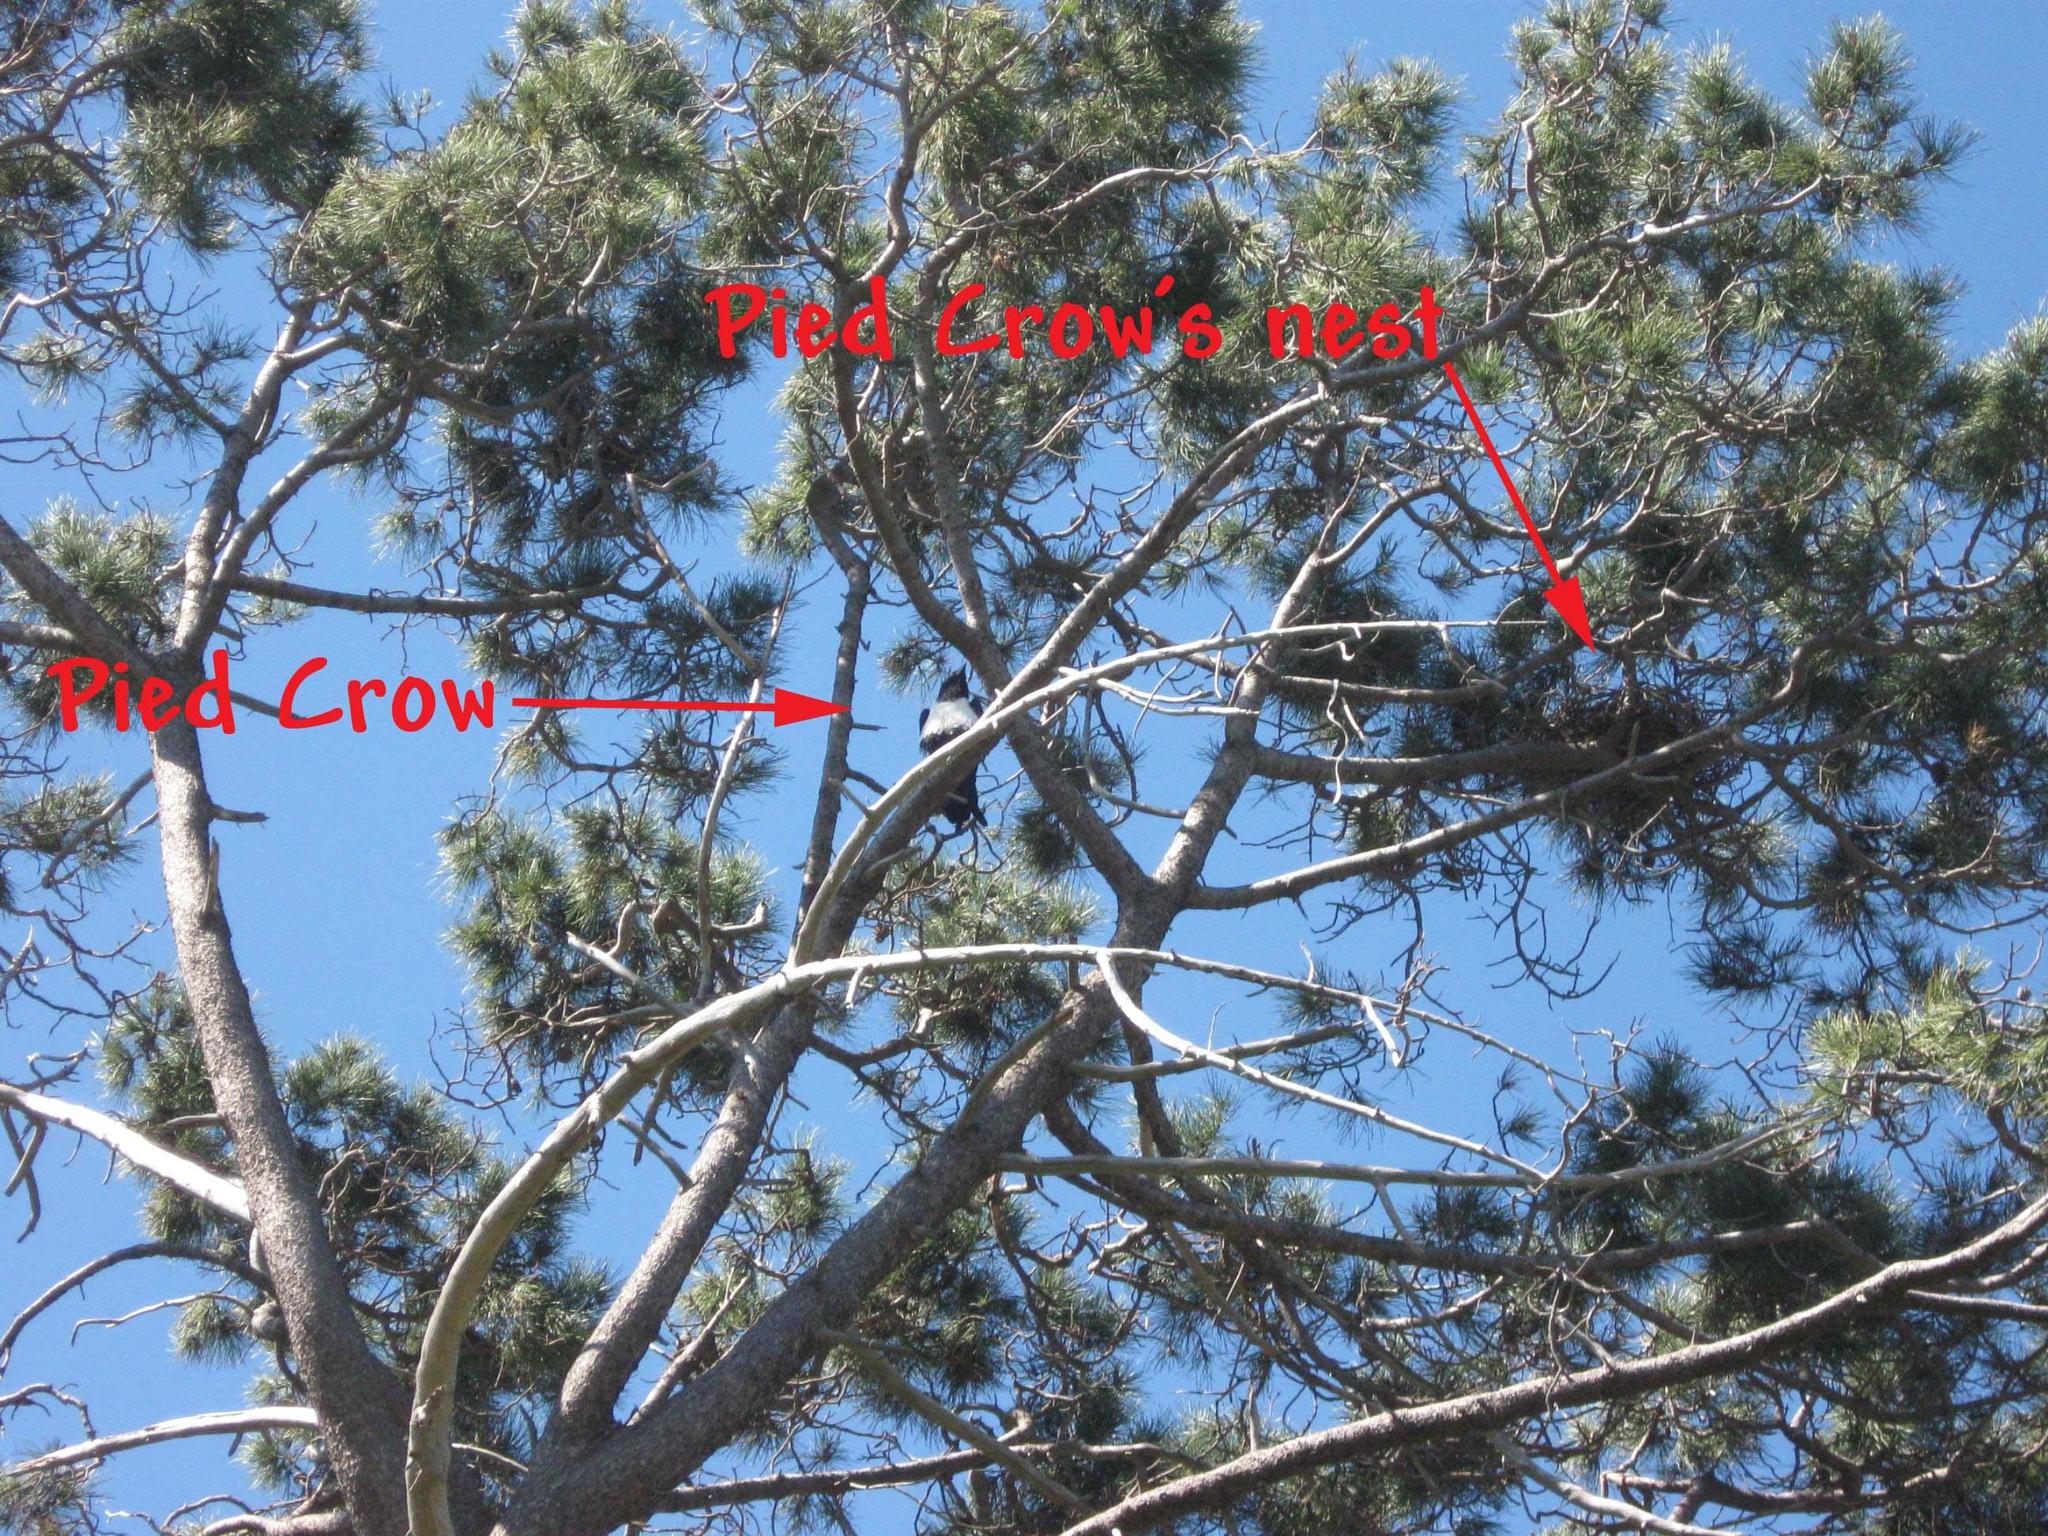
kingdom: Animalia
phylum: Chordata
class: Aves
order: Passeriformes
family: Corvidae
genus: Corvus
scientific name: Corvus albus
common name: Pied crow
